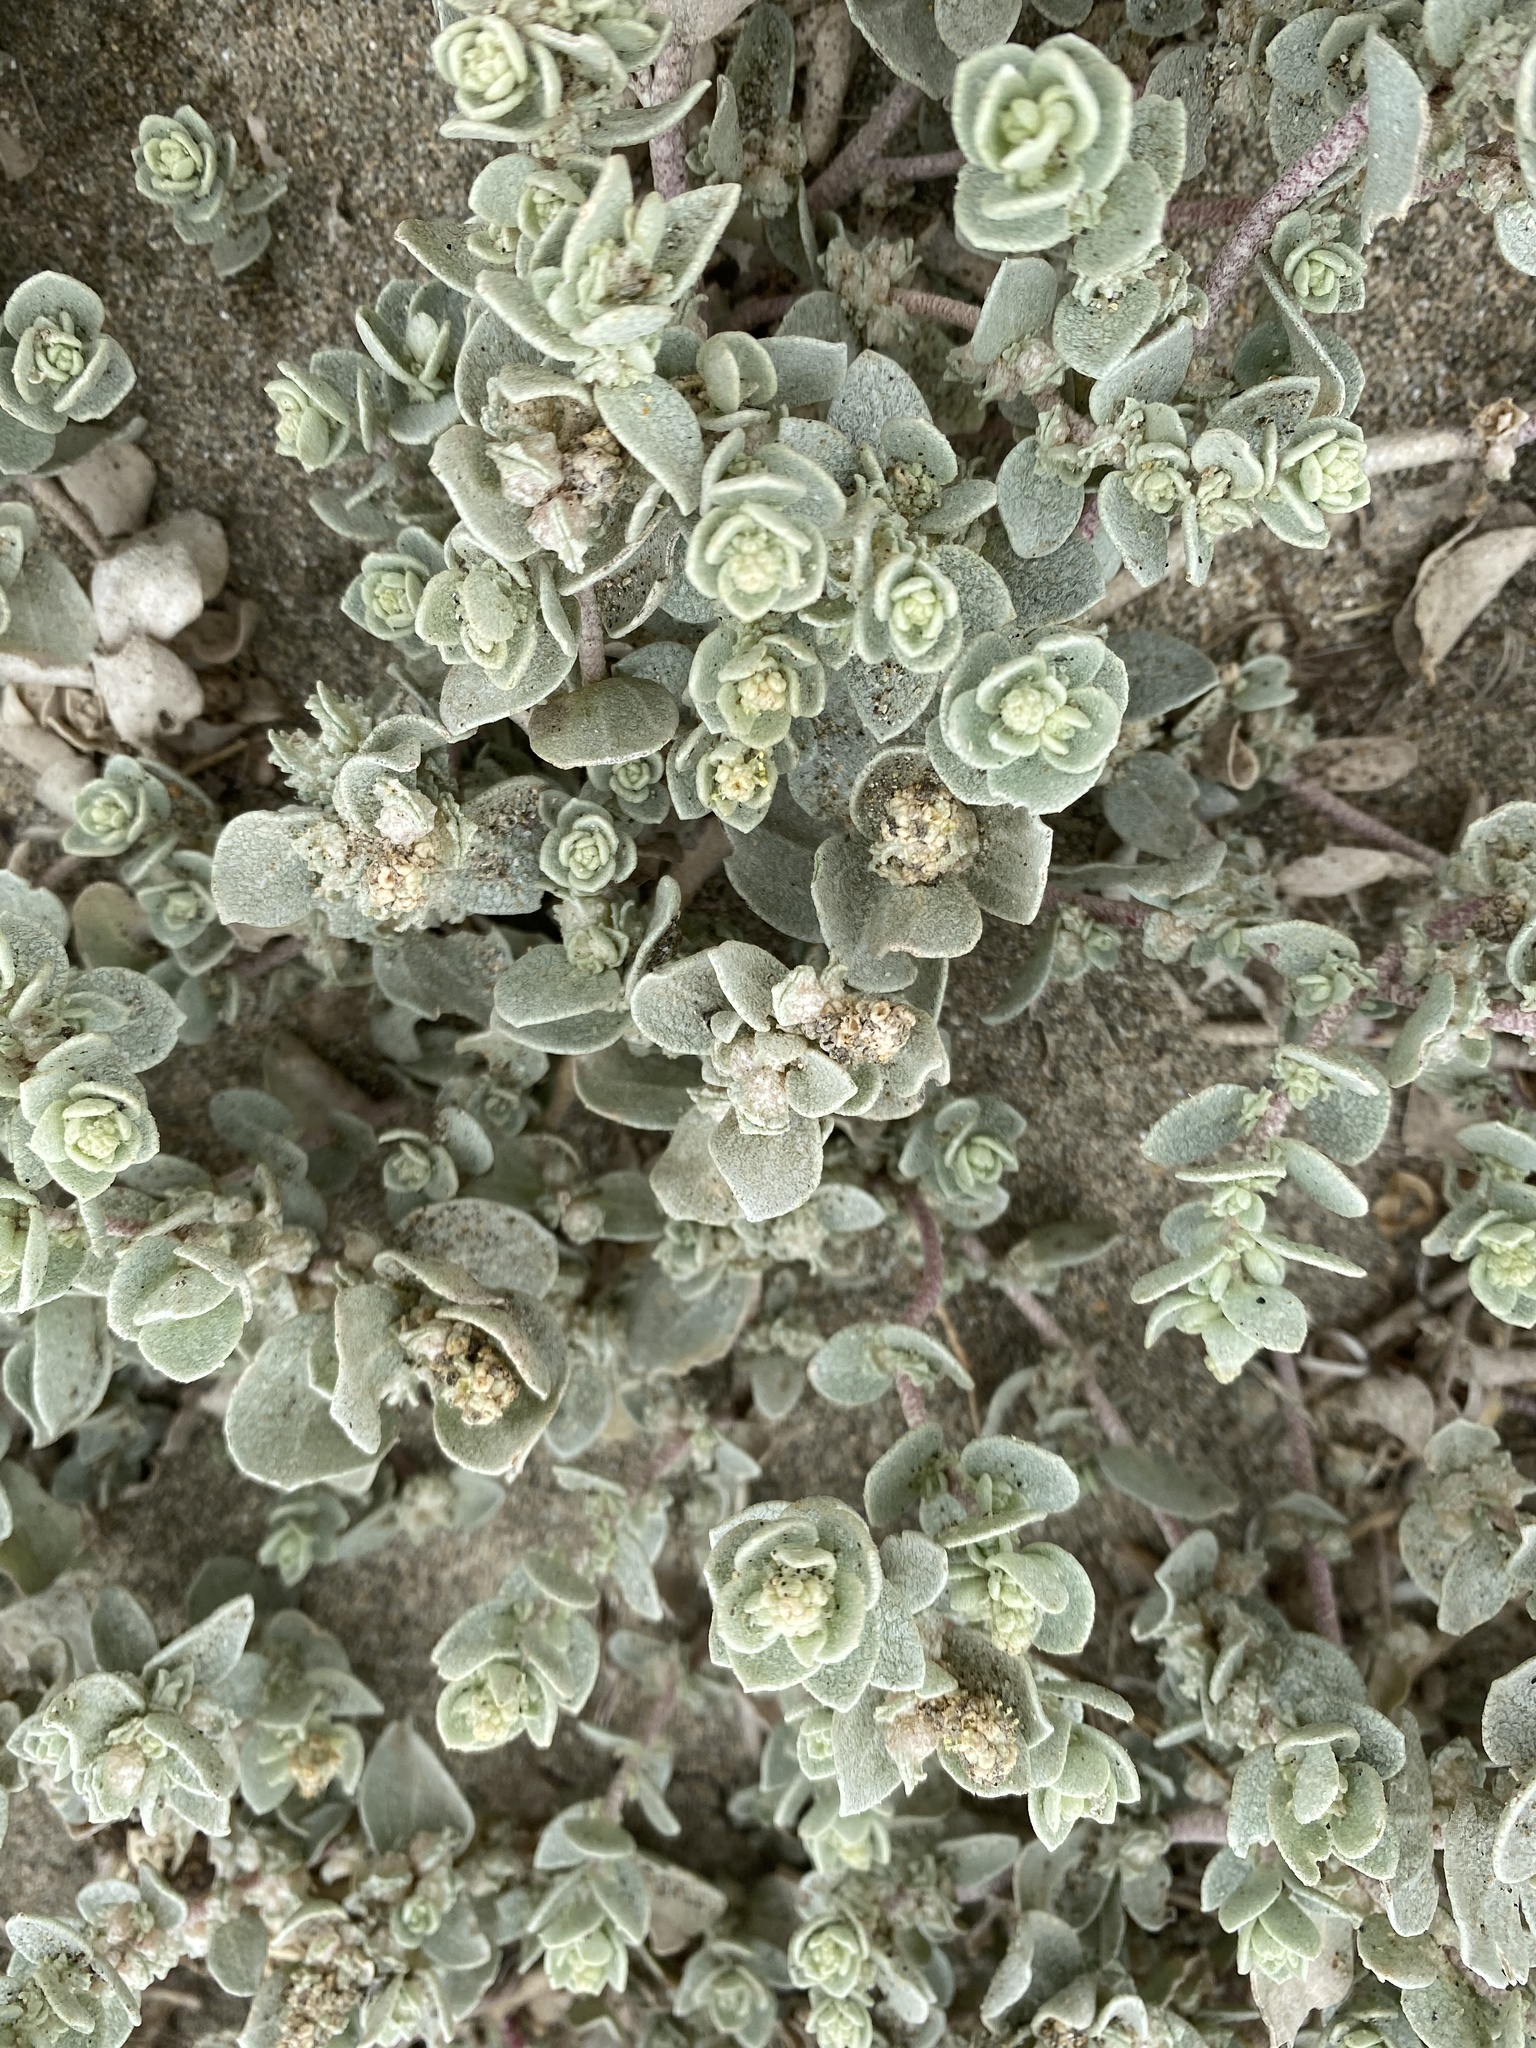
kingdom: Plantae
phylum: Tracheophyta
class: Magnoliopsida
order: Caryophyllales
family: Amaranthaceae
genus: Atriplex
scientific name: Atriplex leucophylla
